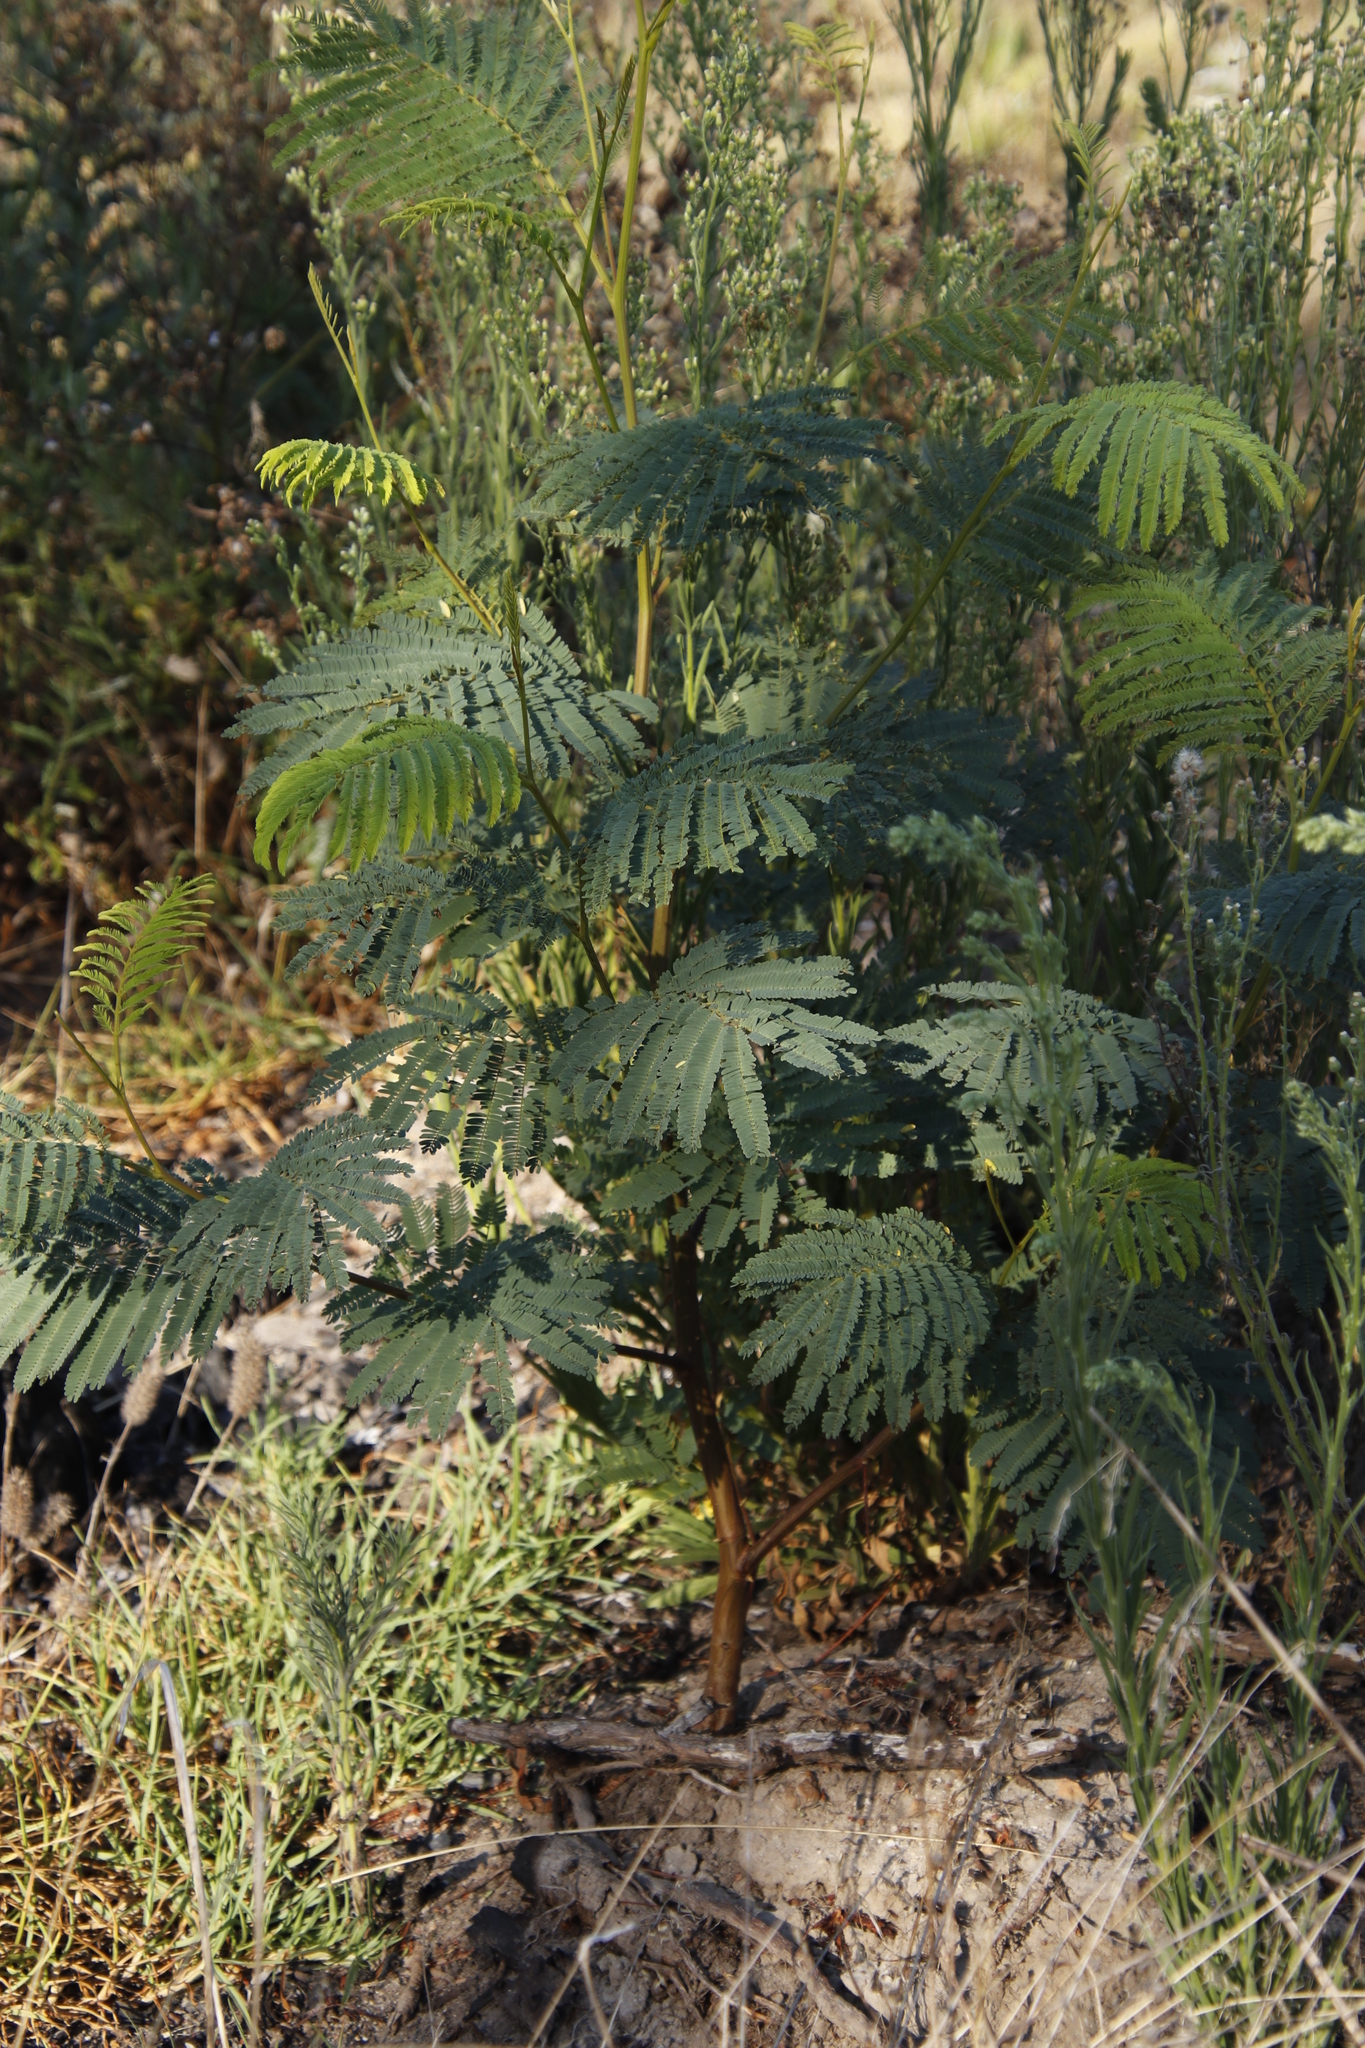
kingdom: Plantae
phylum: Tracheophyta
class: Magnoliopsida
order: Fabales
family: Fabaceae
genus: Paraserianthes
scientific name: Paraserianthes lophantha
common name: Plume albizia
